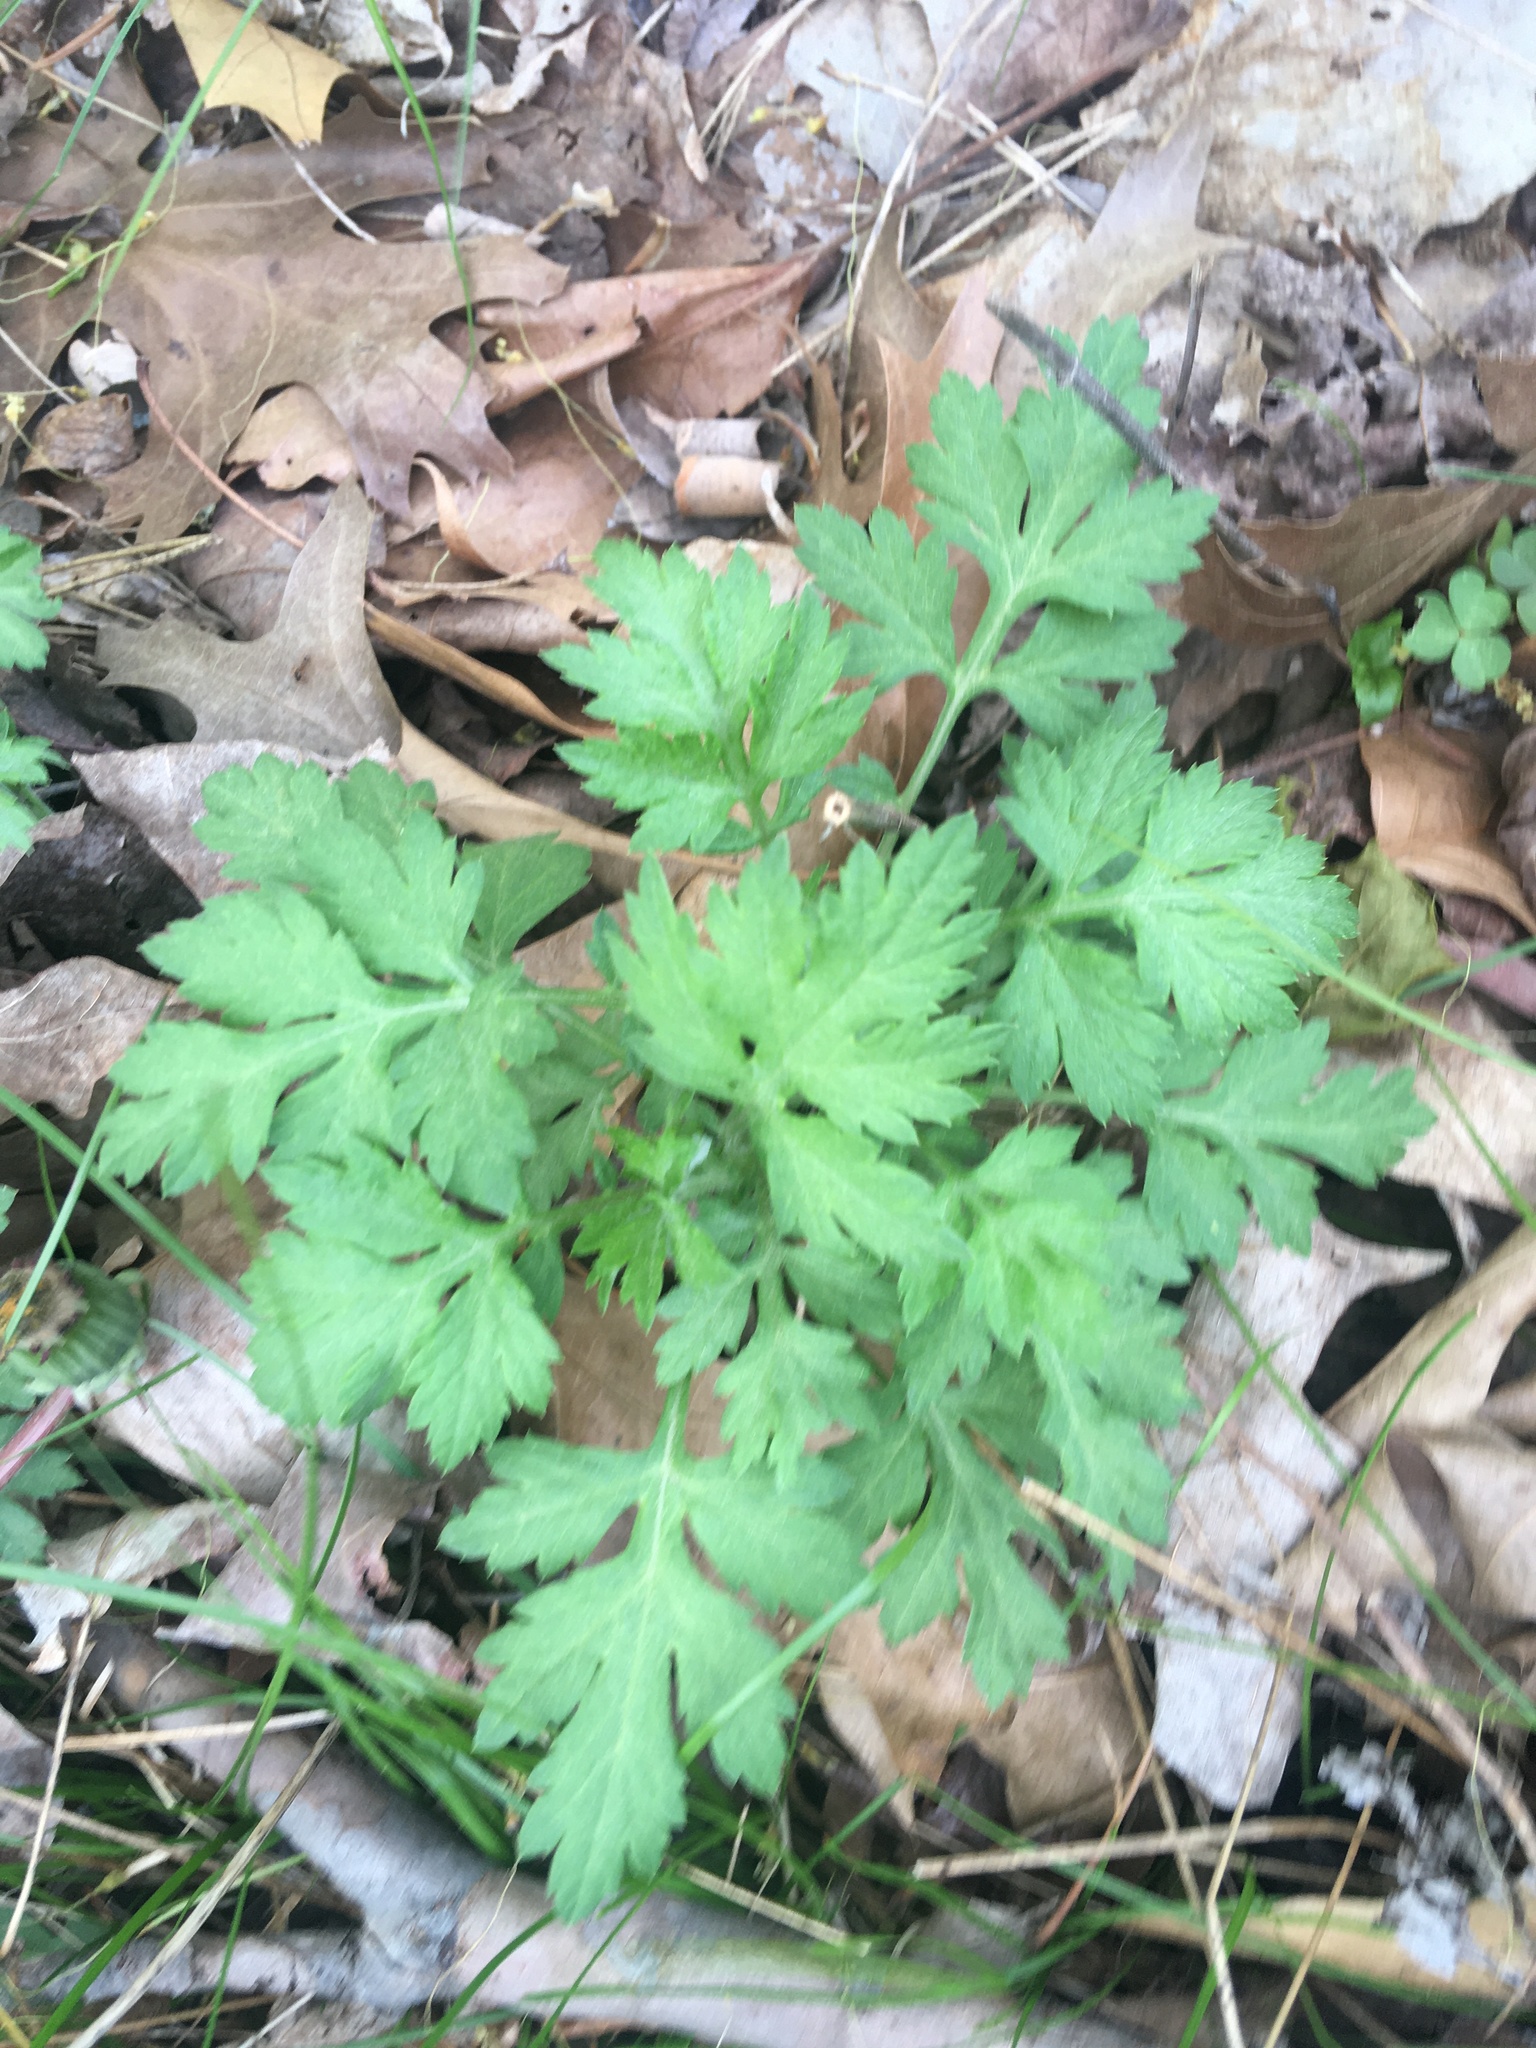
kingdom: Plantae
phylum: Tracheophyta
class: Magnoliopsida
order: Asterales
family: Asteraceae
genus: Artemisia
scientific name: Artemisia vulgaris
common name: Mugwort
